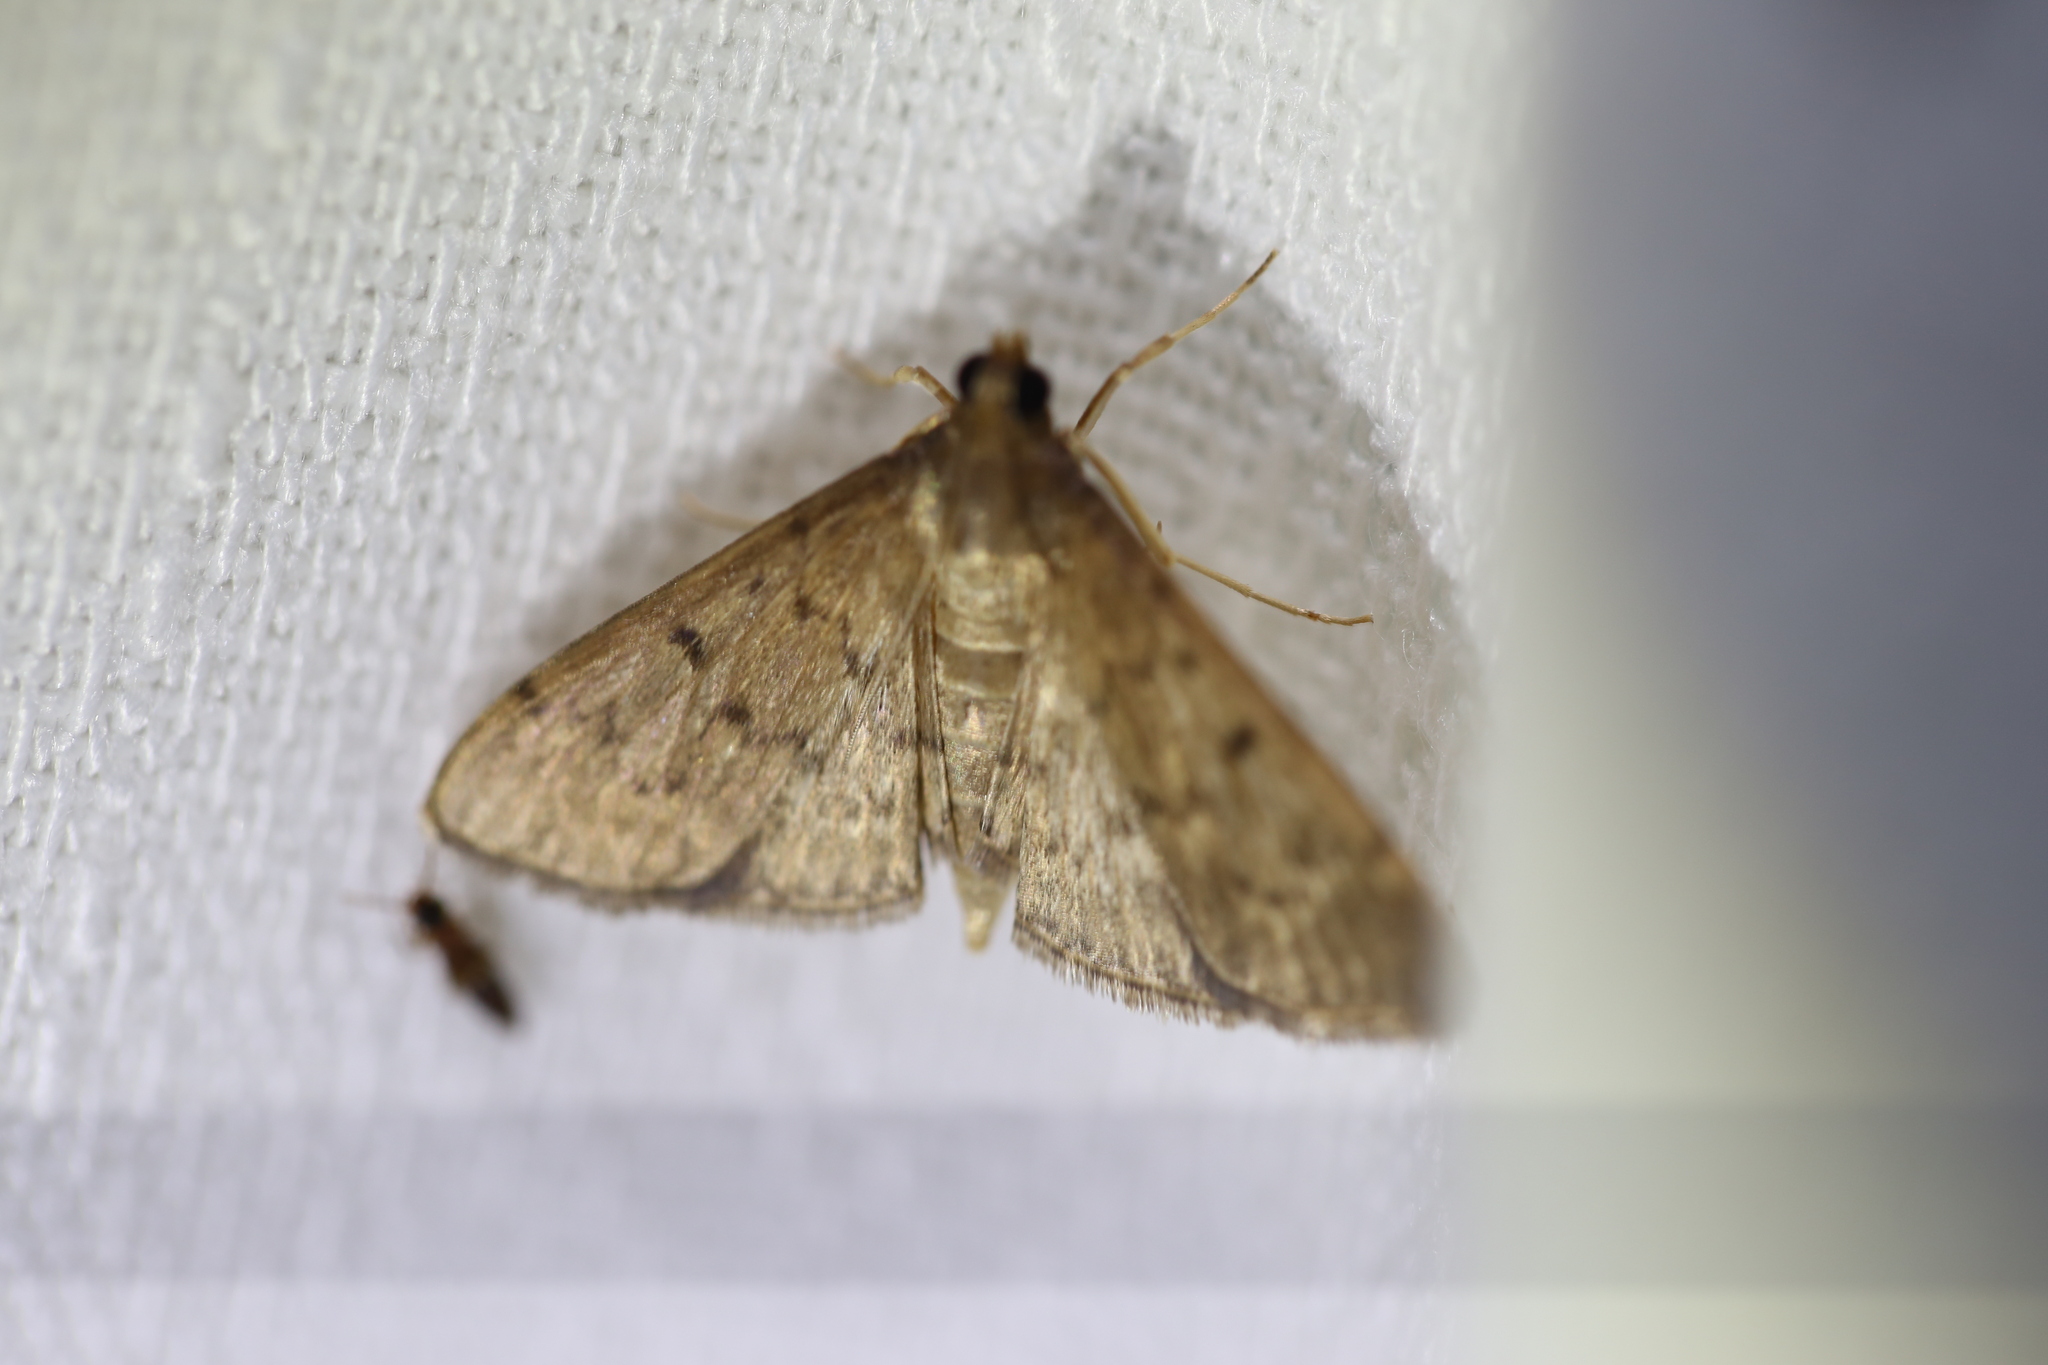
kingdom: Animalia
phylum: Arthropoda
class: Insecta
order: Lepidoptera
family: Crambidae
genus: Herpetogramma
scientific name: Herpetogramma licarsisalis
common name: Grass webworm
